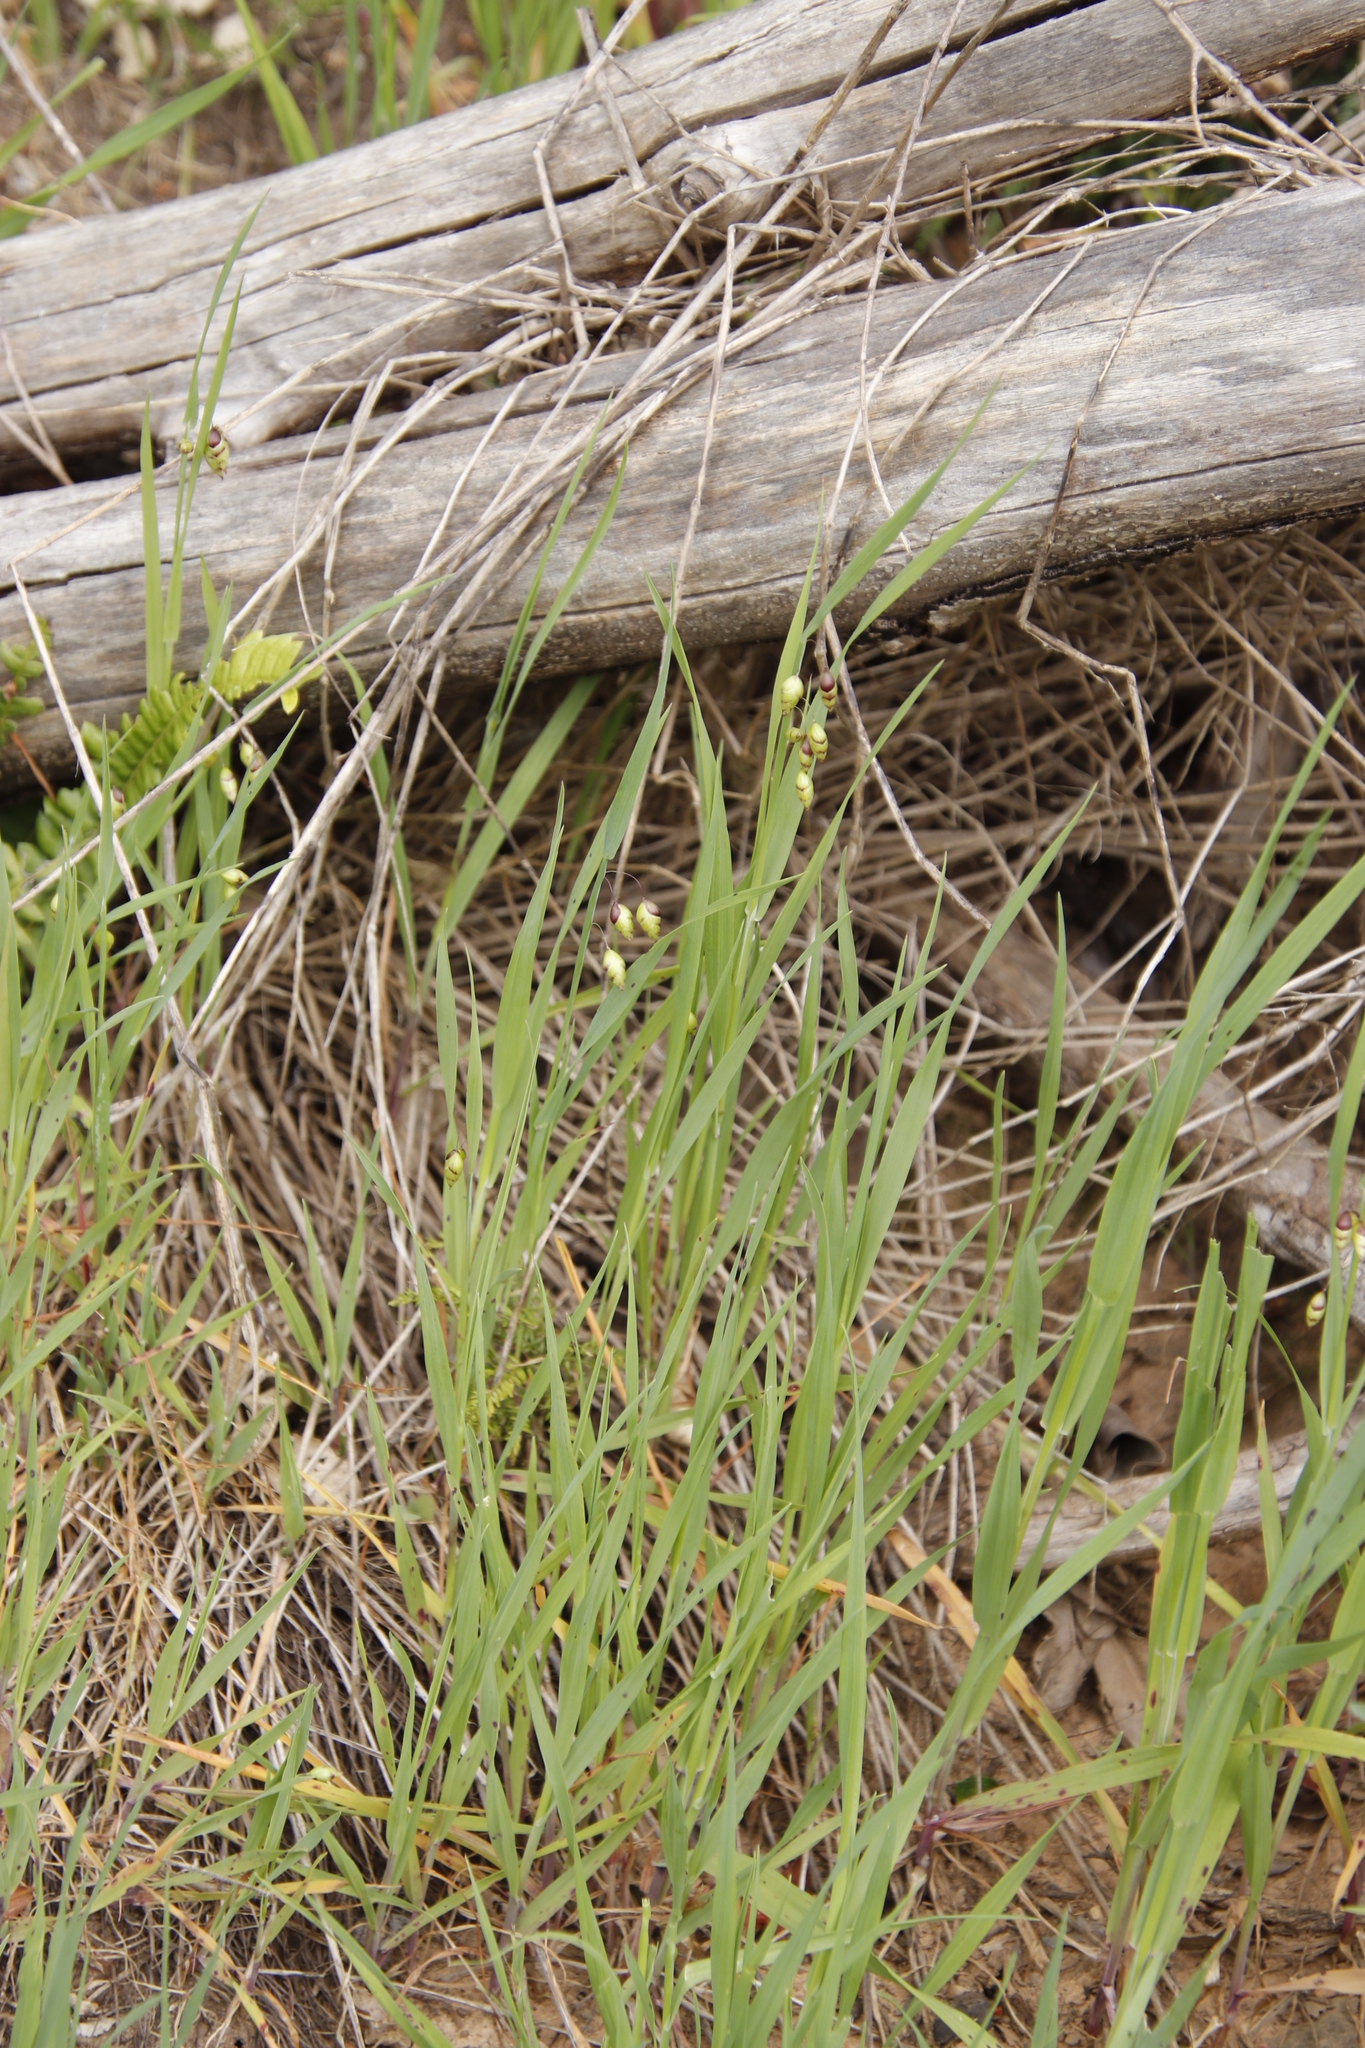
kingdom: Plantae
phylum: Tracheophyta
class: Liliopsida
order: Poales
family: Poaceae
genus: Briza
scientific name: Briza maxima
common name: Big quakinggrass
